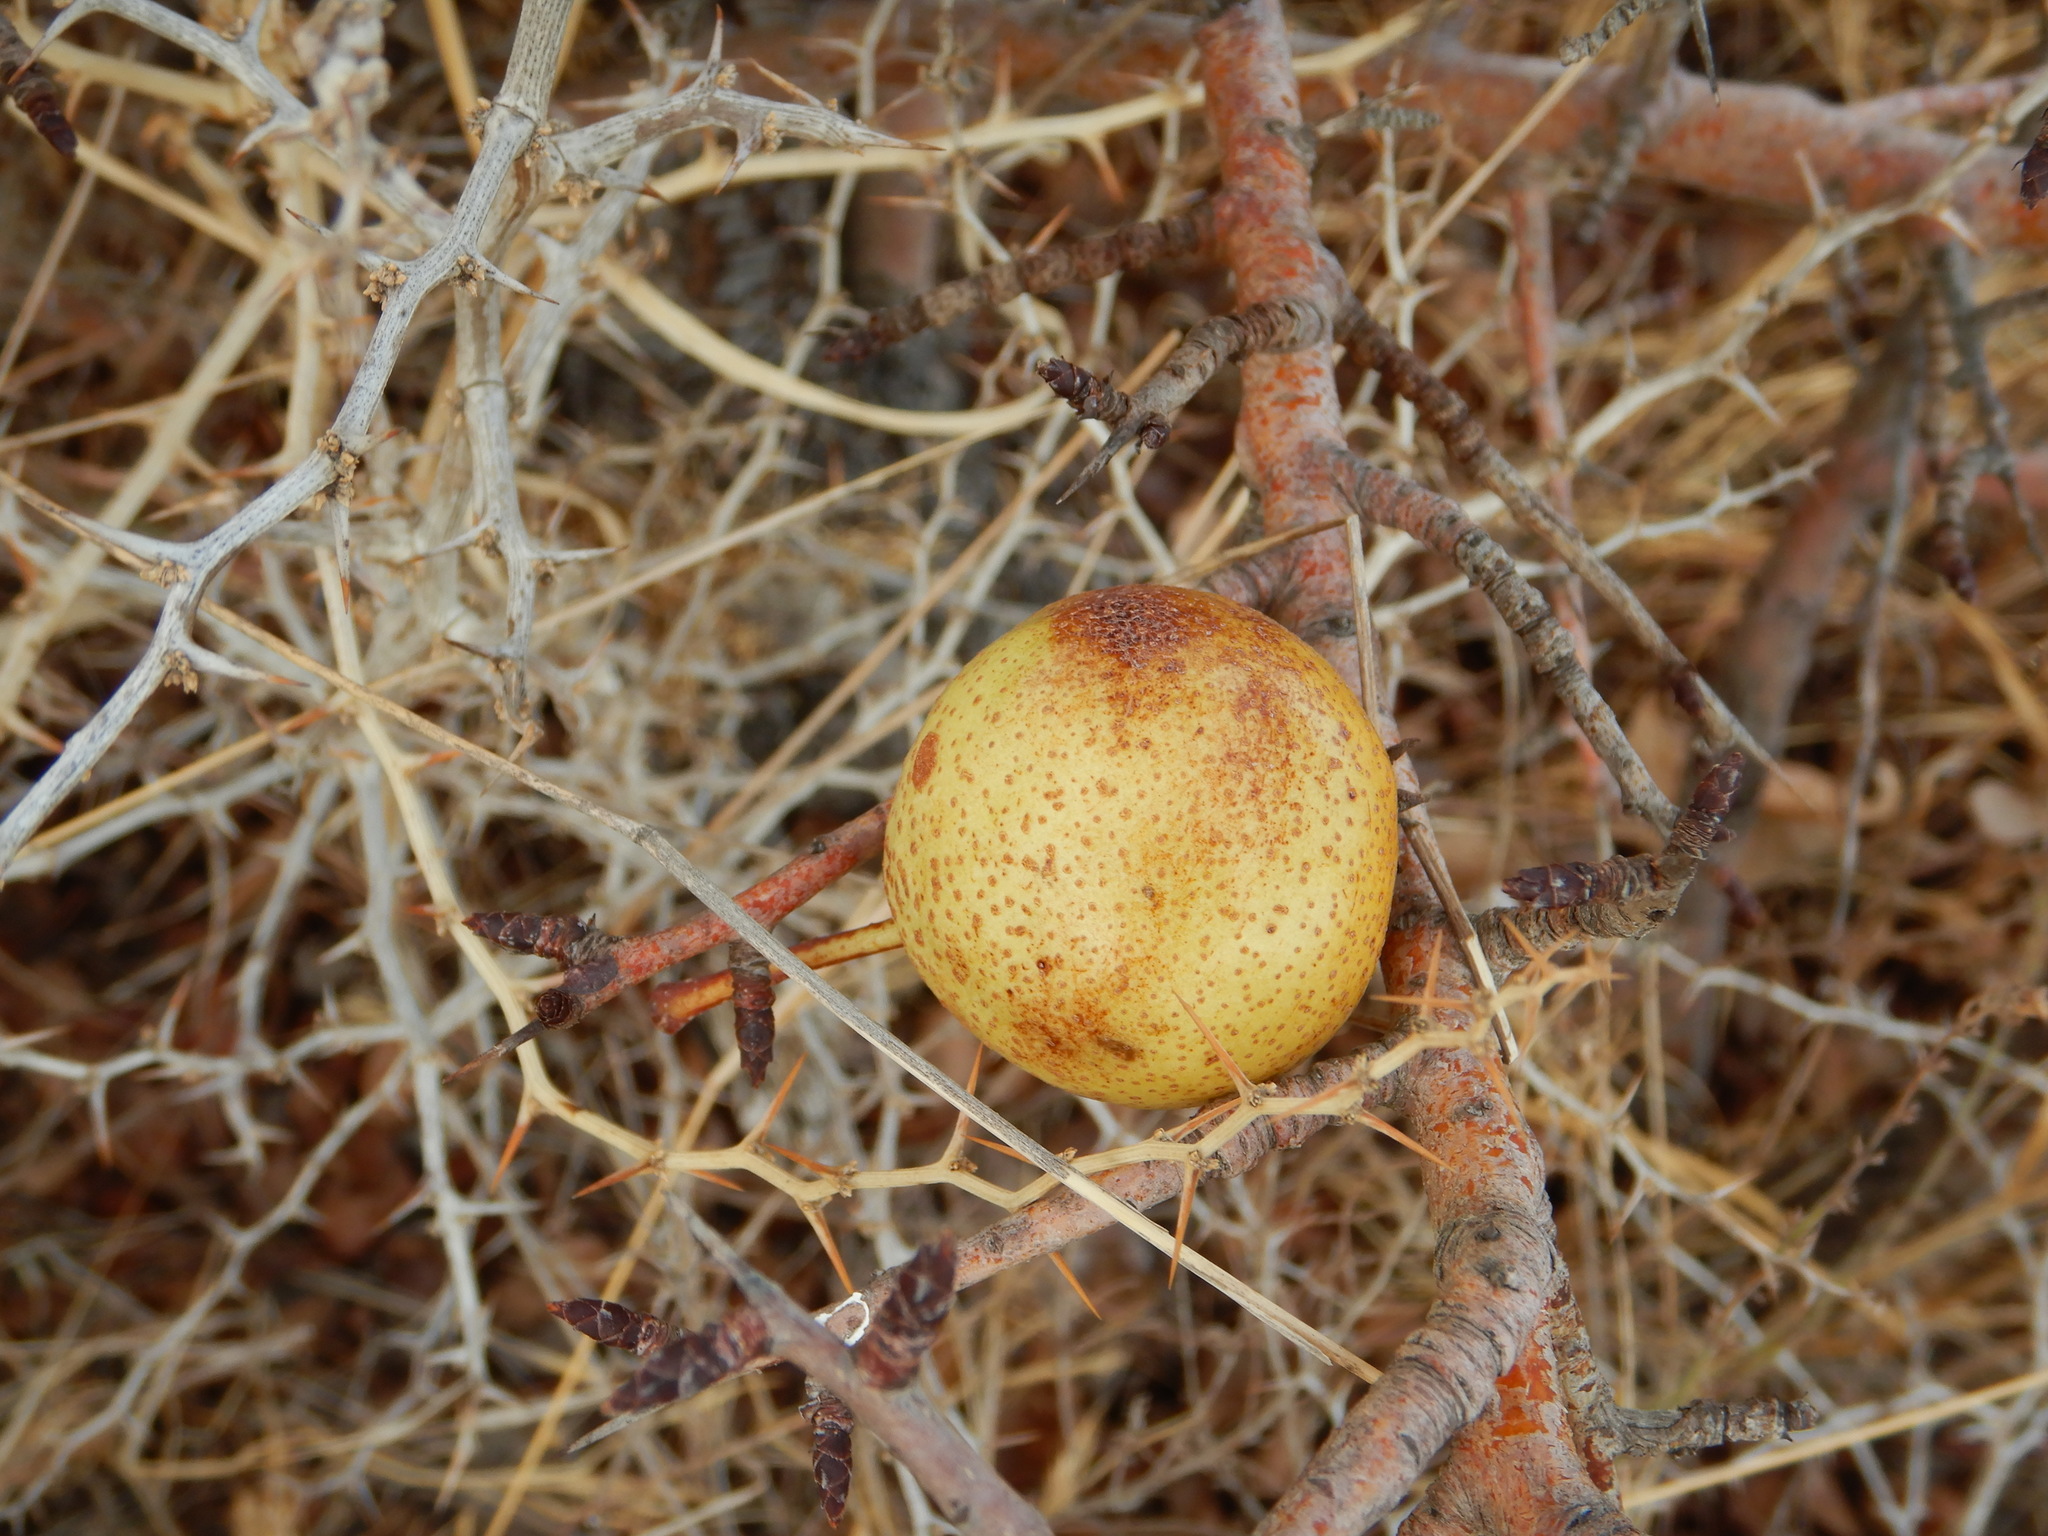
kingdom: Plantae
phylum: Tracheophyta
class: Magnoliopsida
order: Rosales
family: Rosaceae
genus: Pyrus
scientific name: Pyrus bourgaeana
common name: Iberian pear
